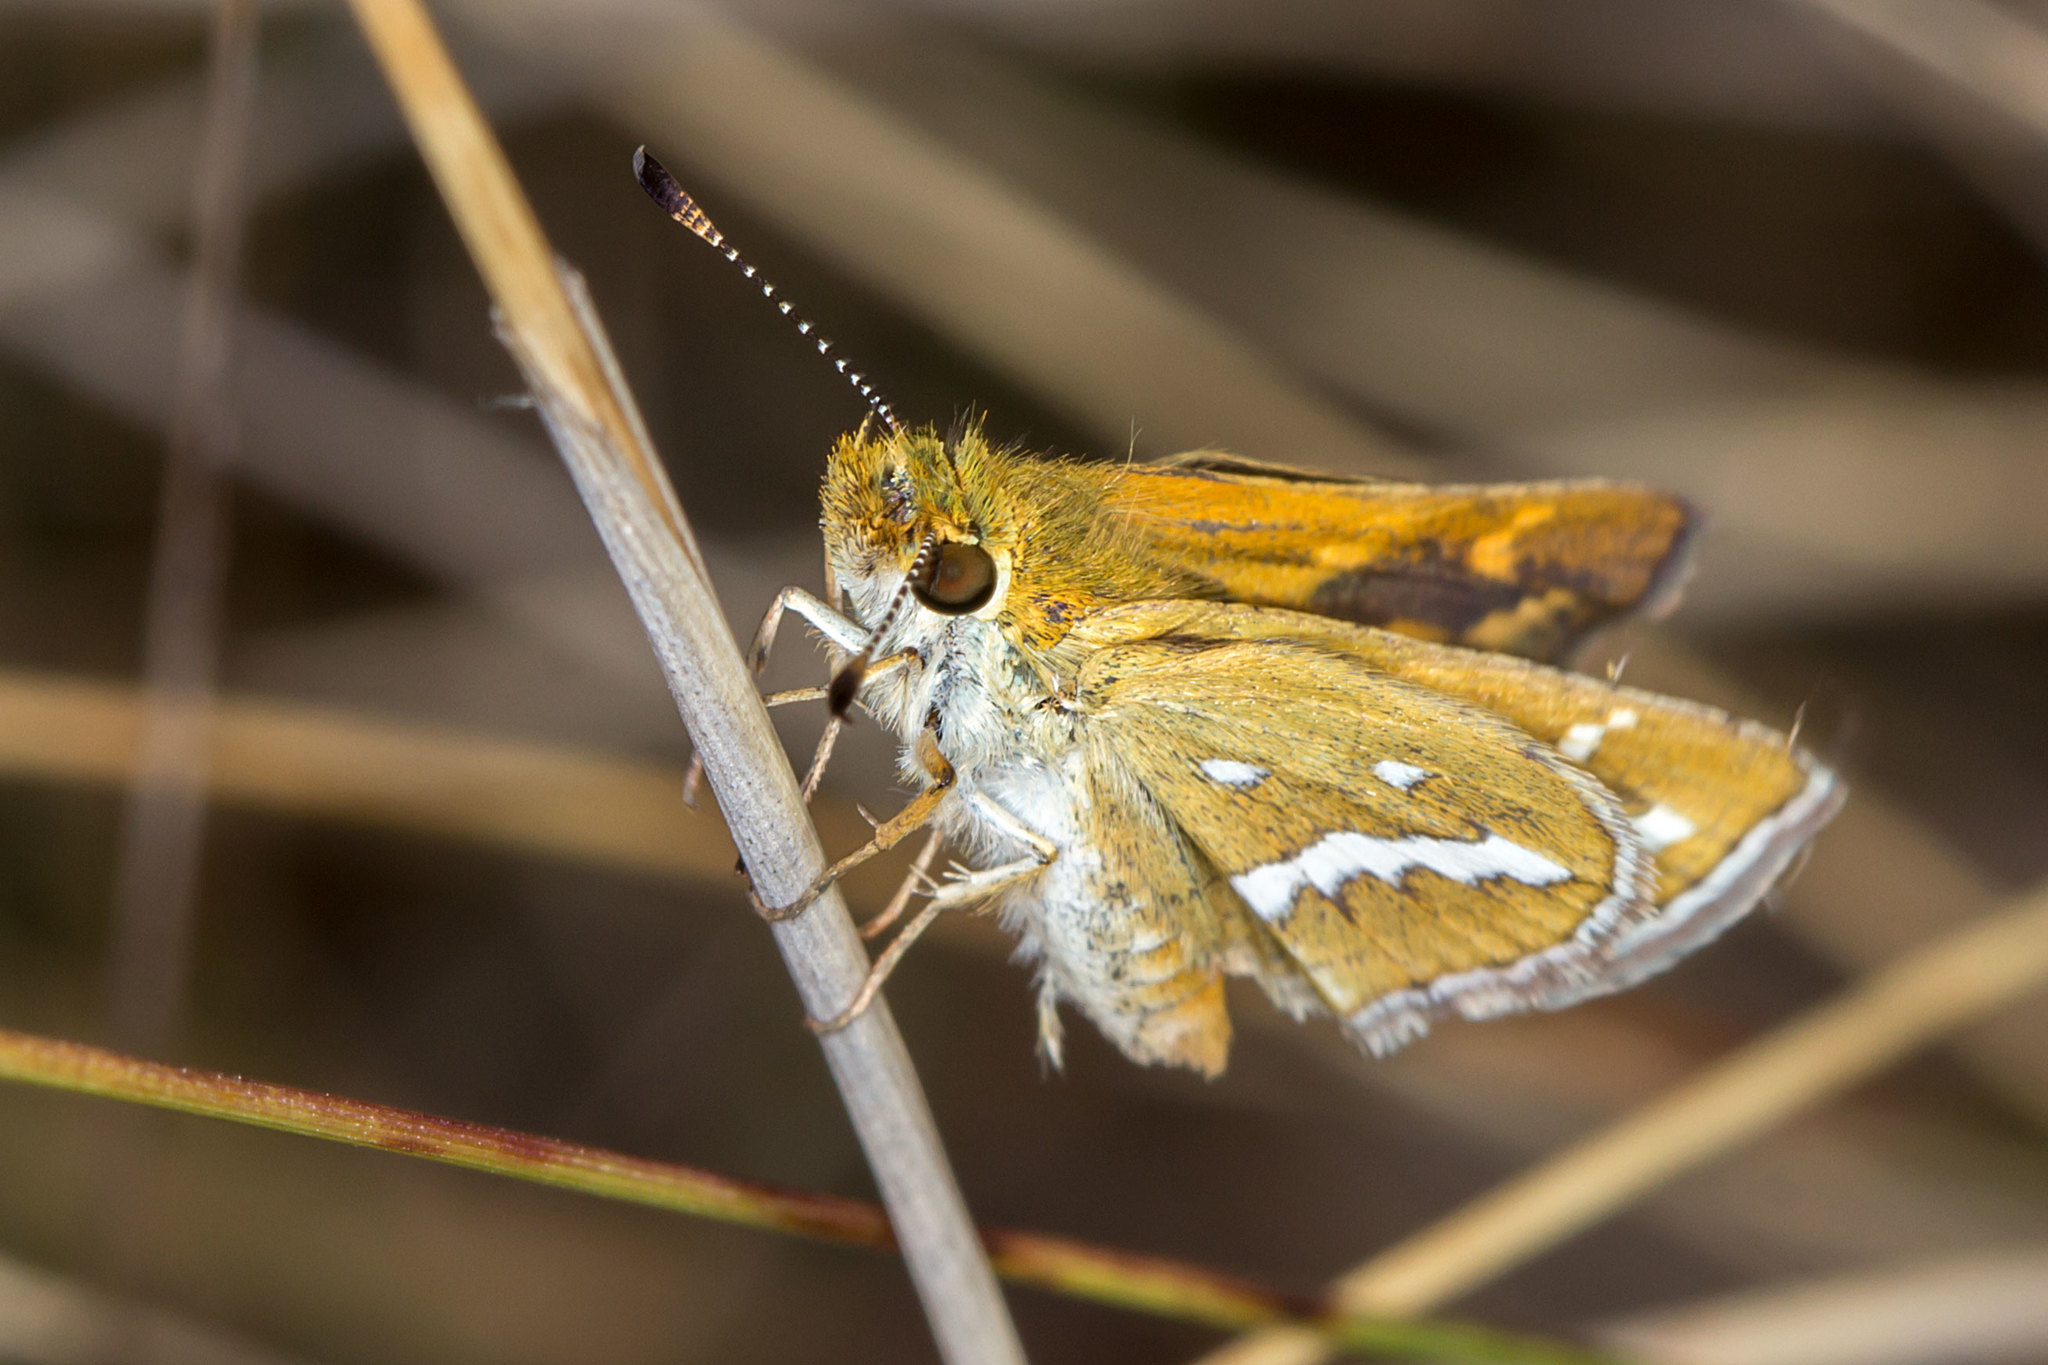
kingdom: Animalia
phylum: Arthropoda
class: Insecta
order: Lepidoptera
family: Hesperiidae
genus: Taractrocera
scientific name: Taractrocera papyria
